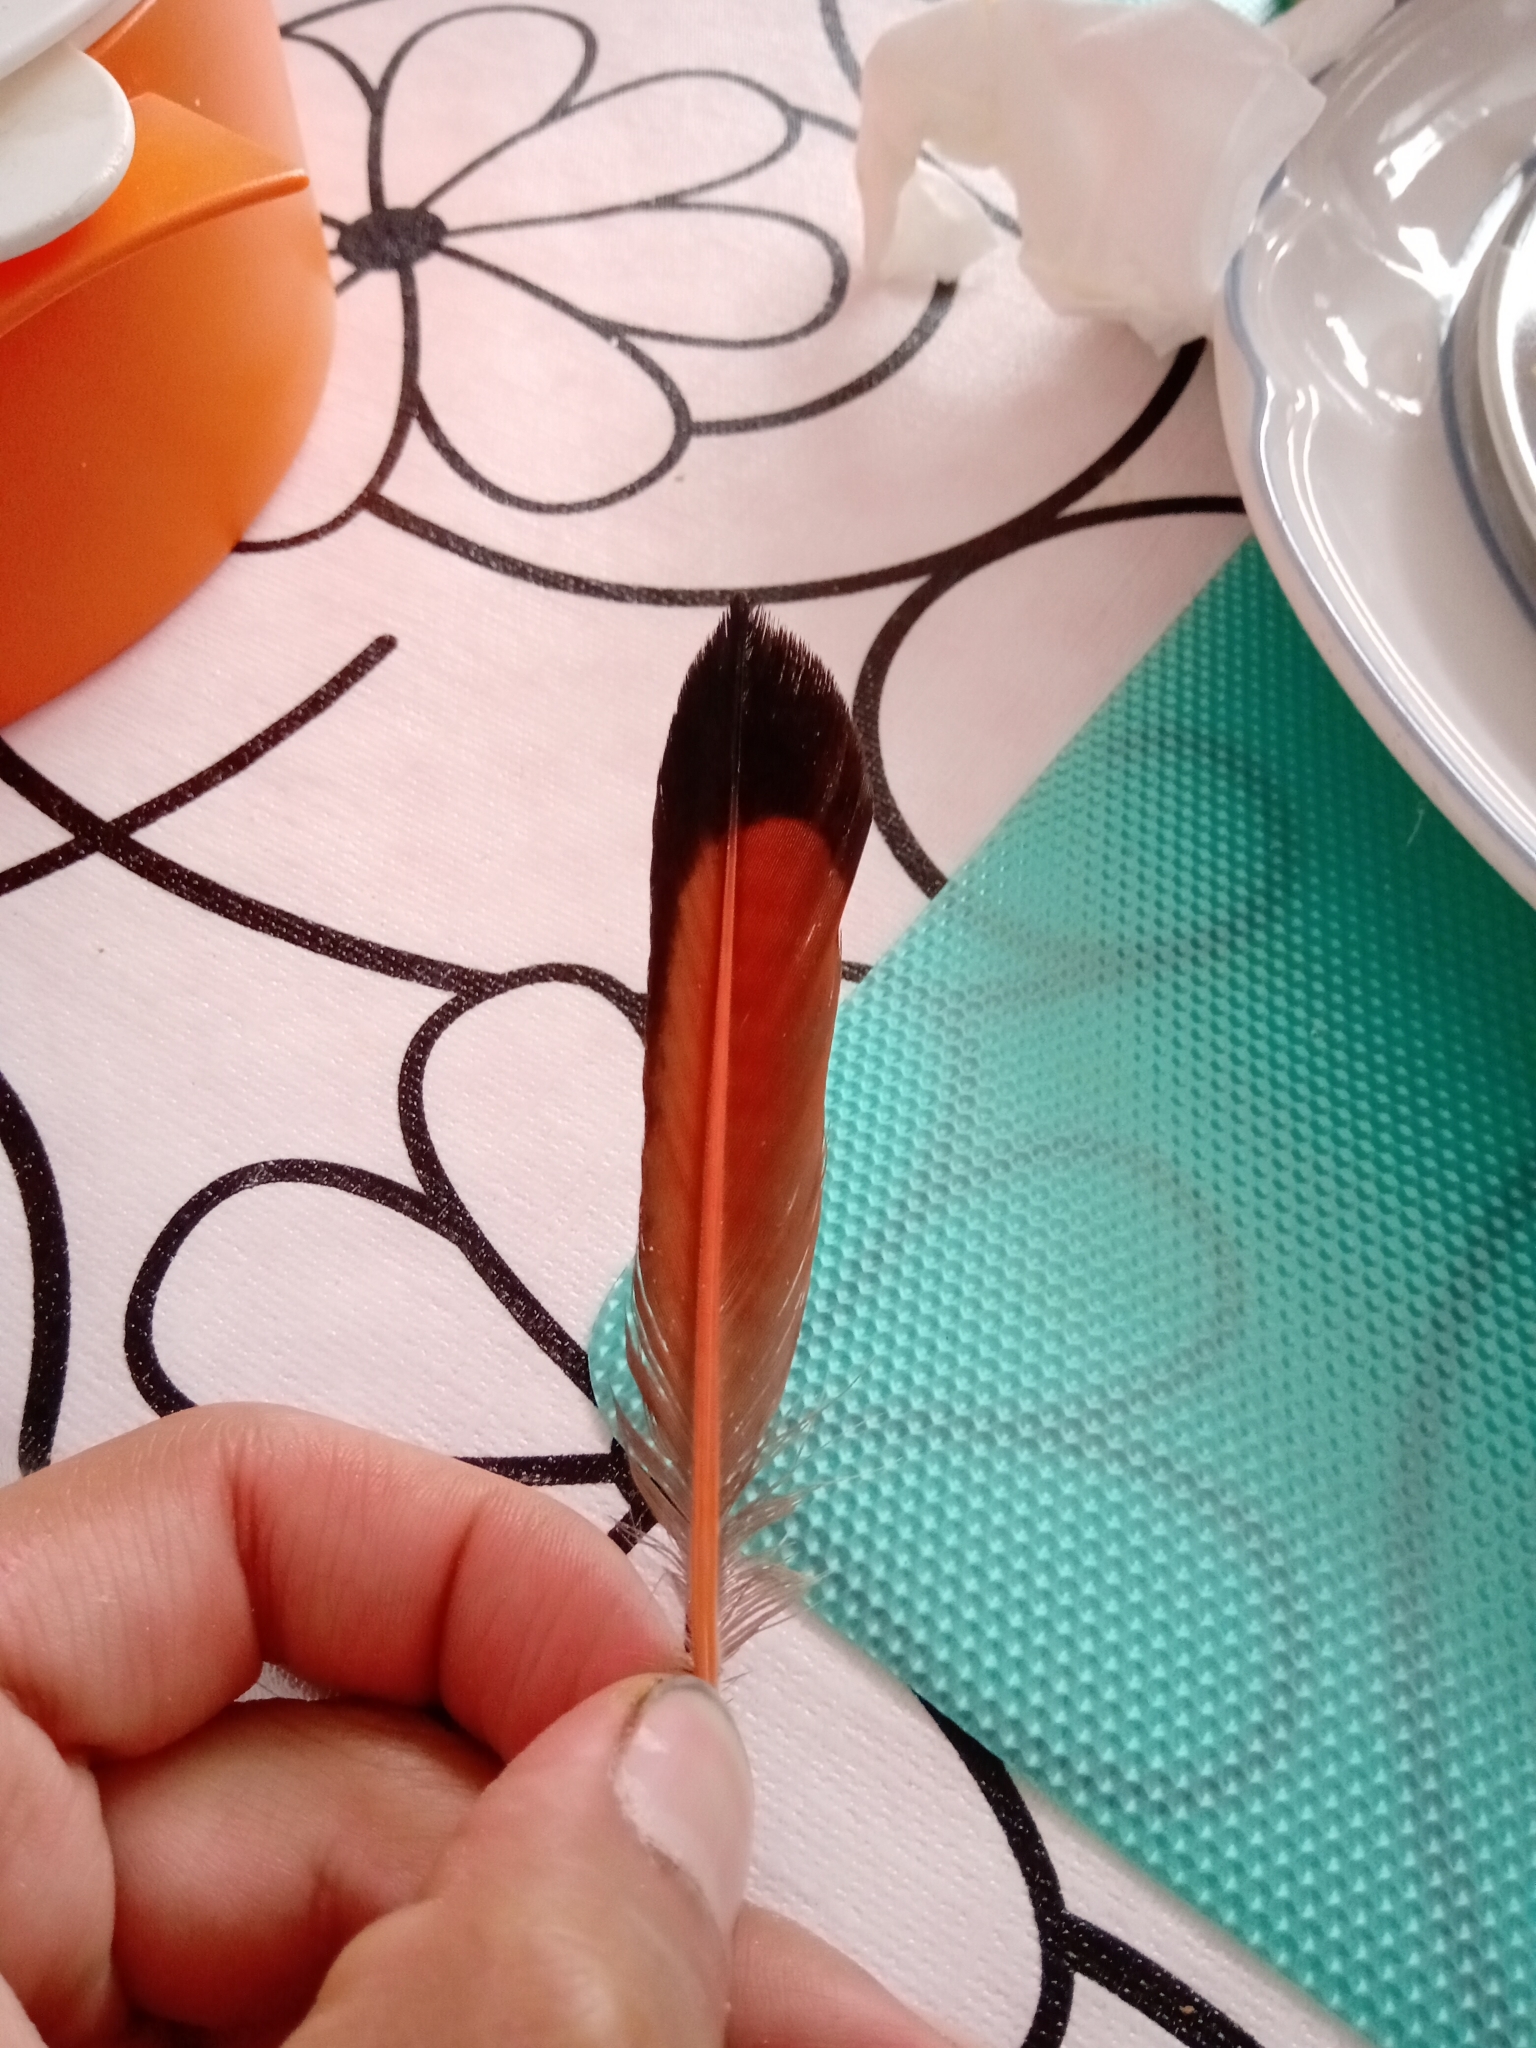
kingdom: Animalia
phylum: Chordata
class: Aves
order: Piciformes
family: Picidae
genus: Colaptes
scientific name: Colaptes auratus
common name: Northern flicker
